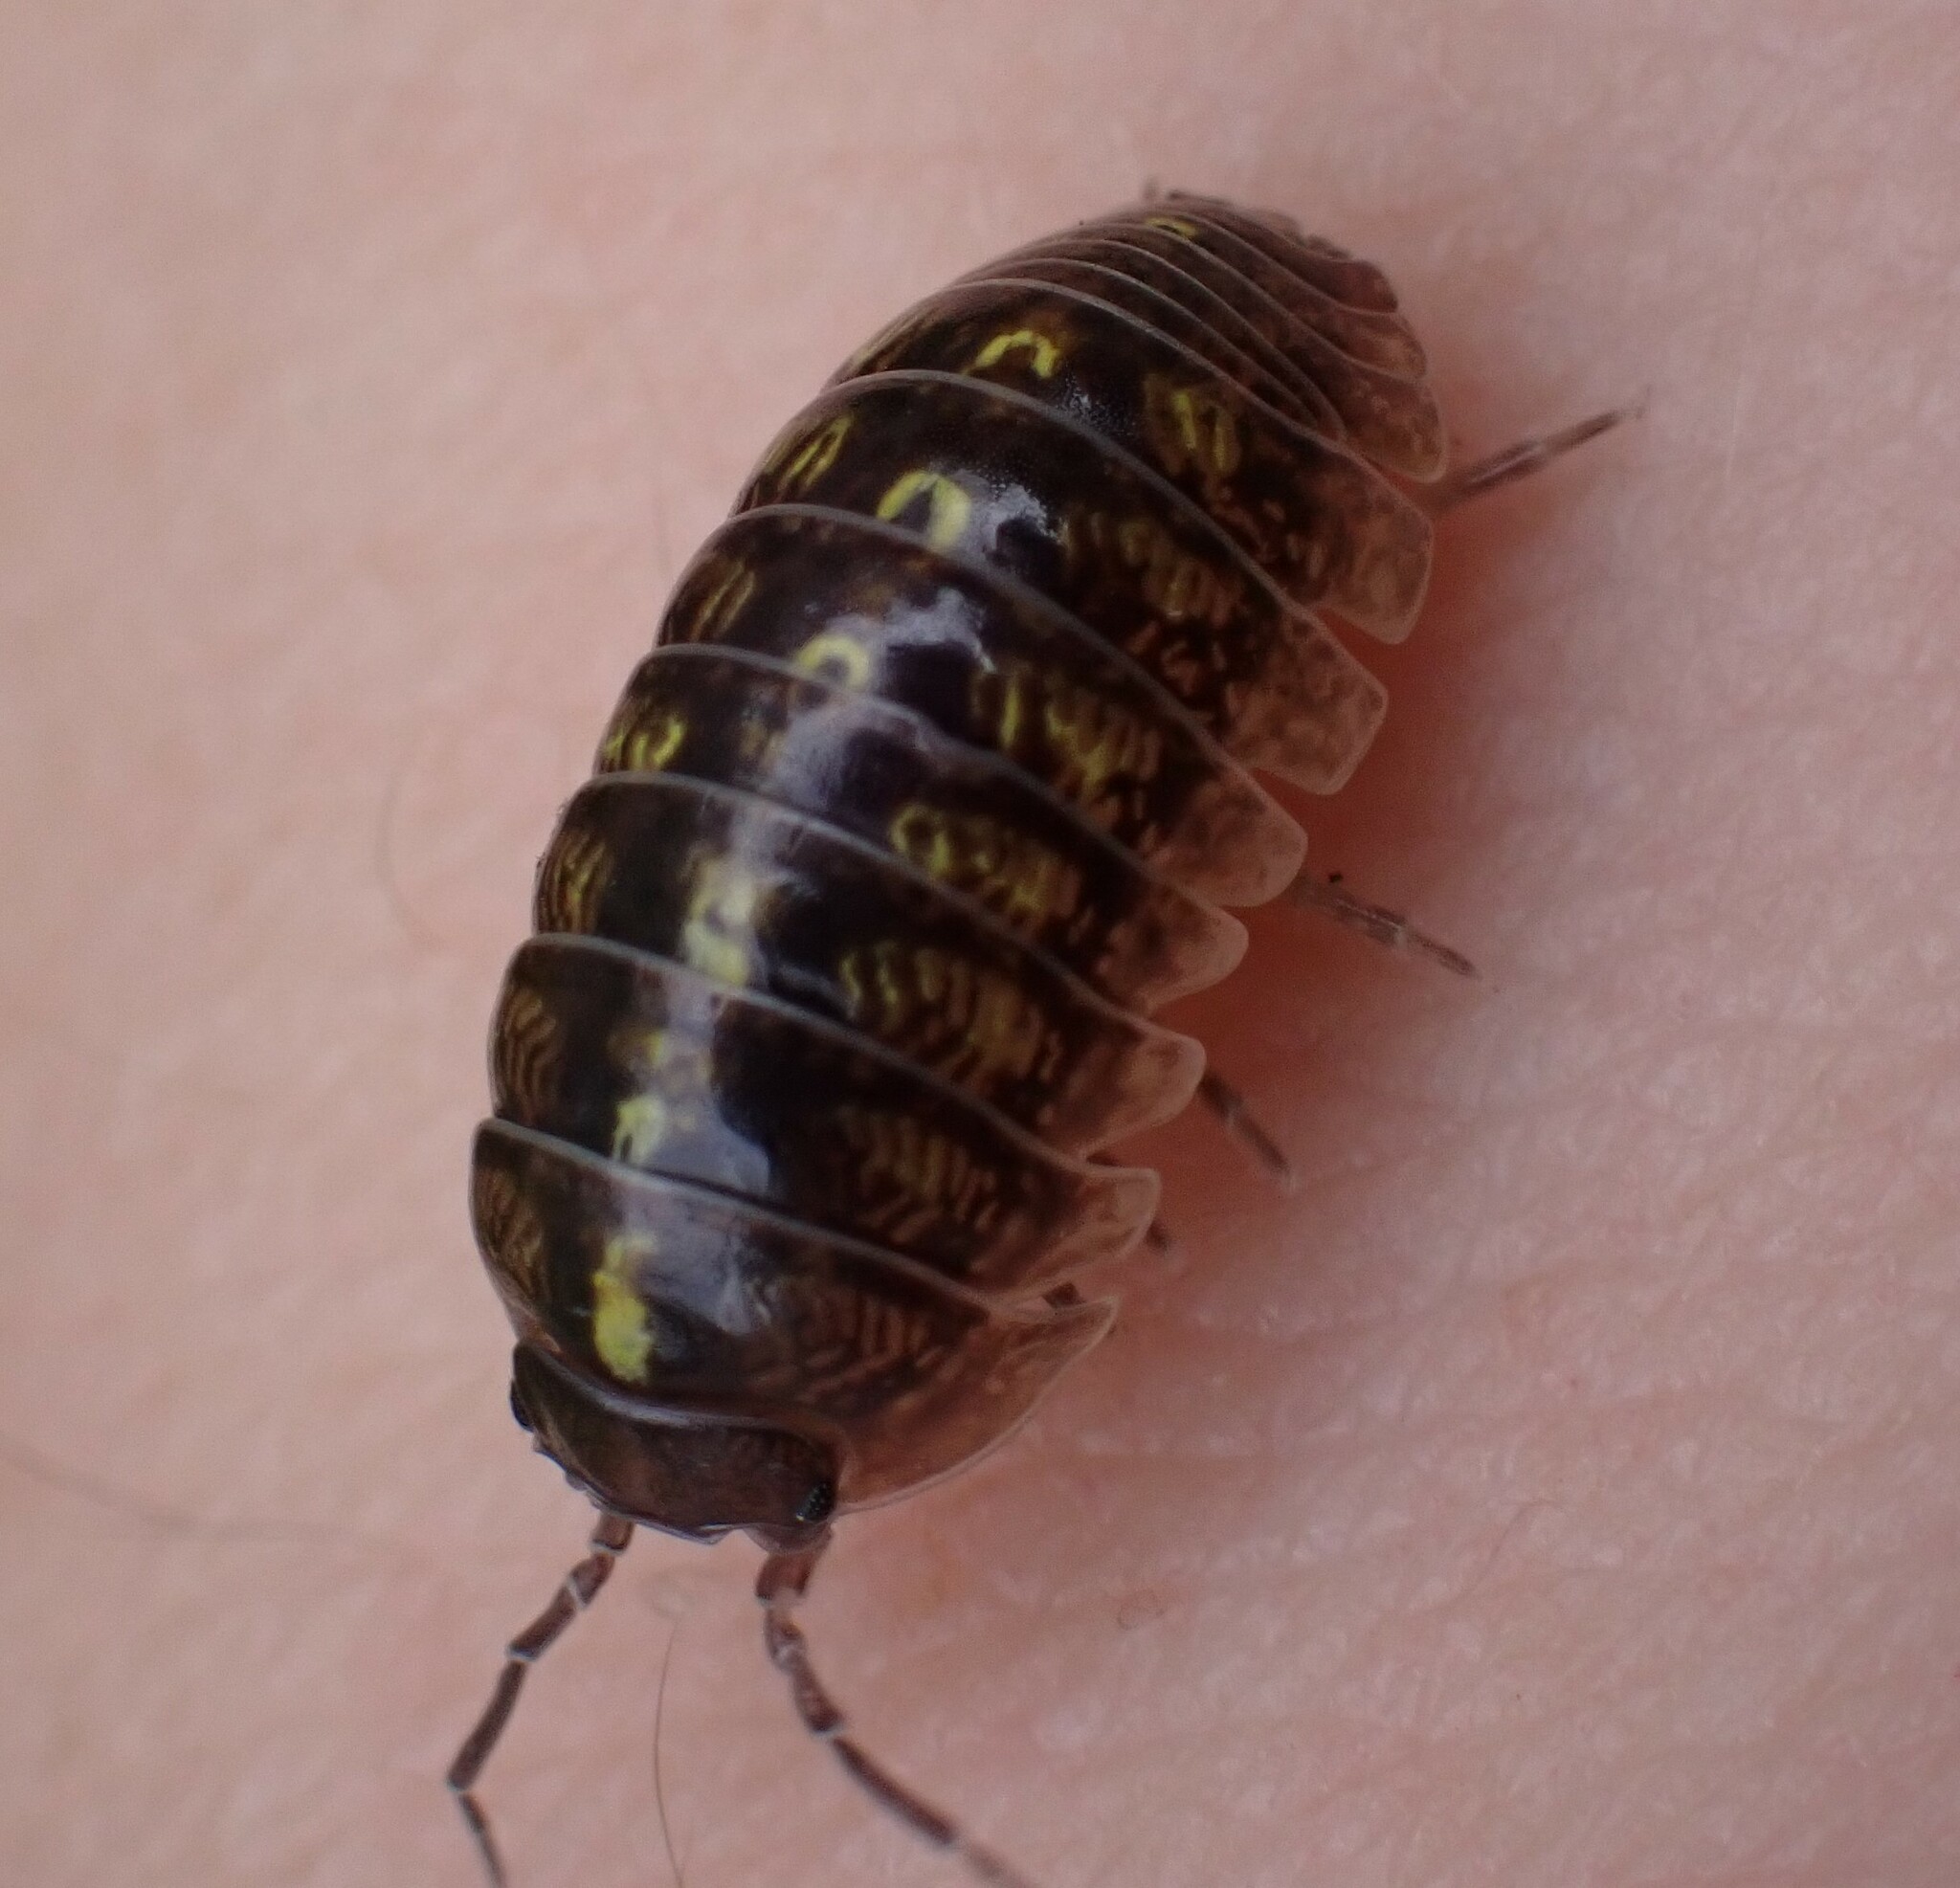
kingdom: Animalia
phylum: Arthropoda
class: Malacostraca
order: Isopoda
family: Armadillidiidae
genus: Armadillidium
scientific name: Armadillidium vulgare
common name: Common pill woodlouse
